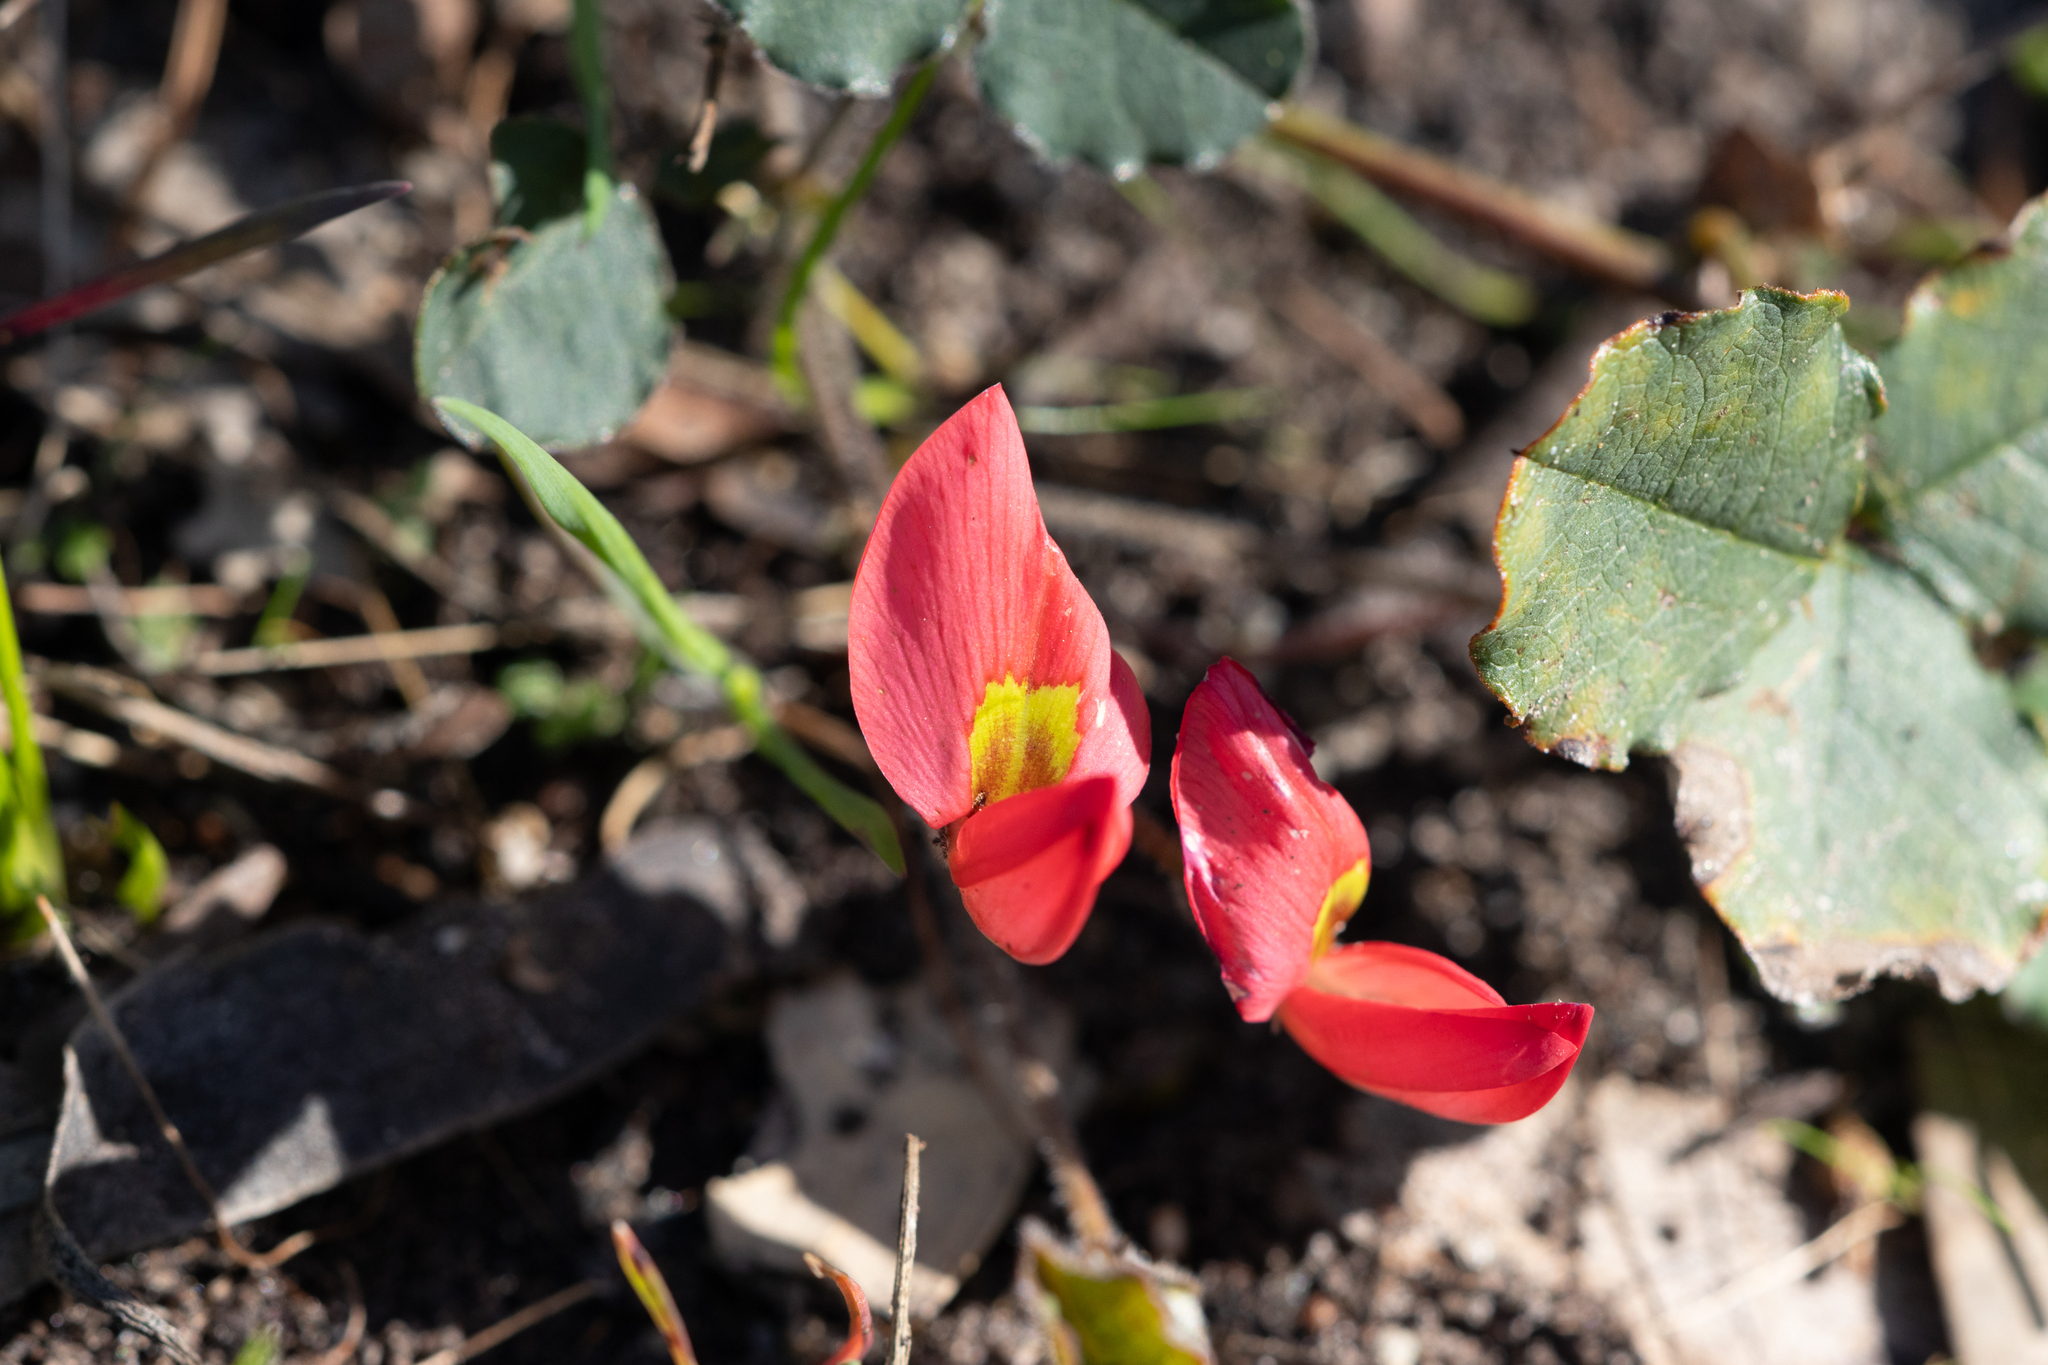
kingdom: Plantae
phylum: Tracheophyta
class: Magnoliopsida
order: Fabales
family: Fabaceae
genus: Kennedia
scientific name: Kennedia prostrata
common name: Running-postman
